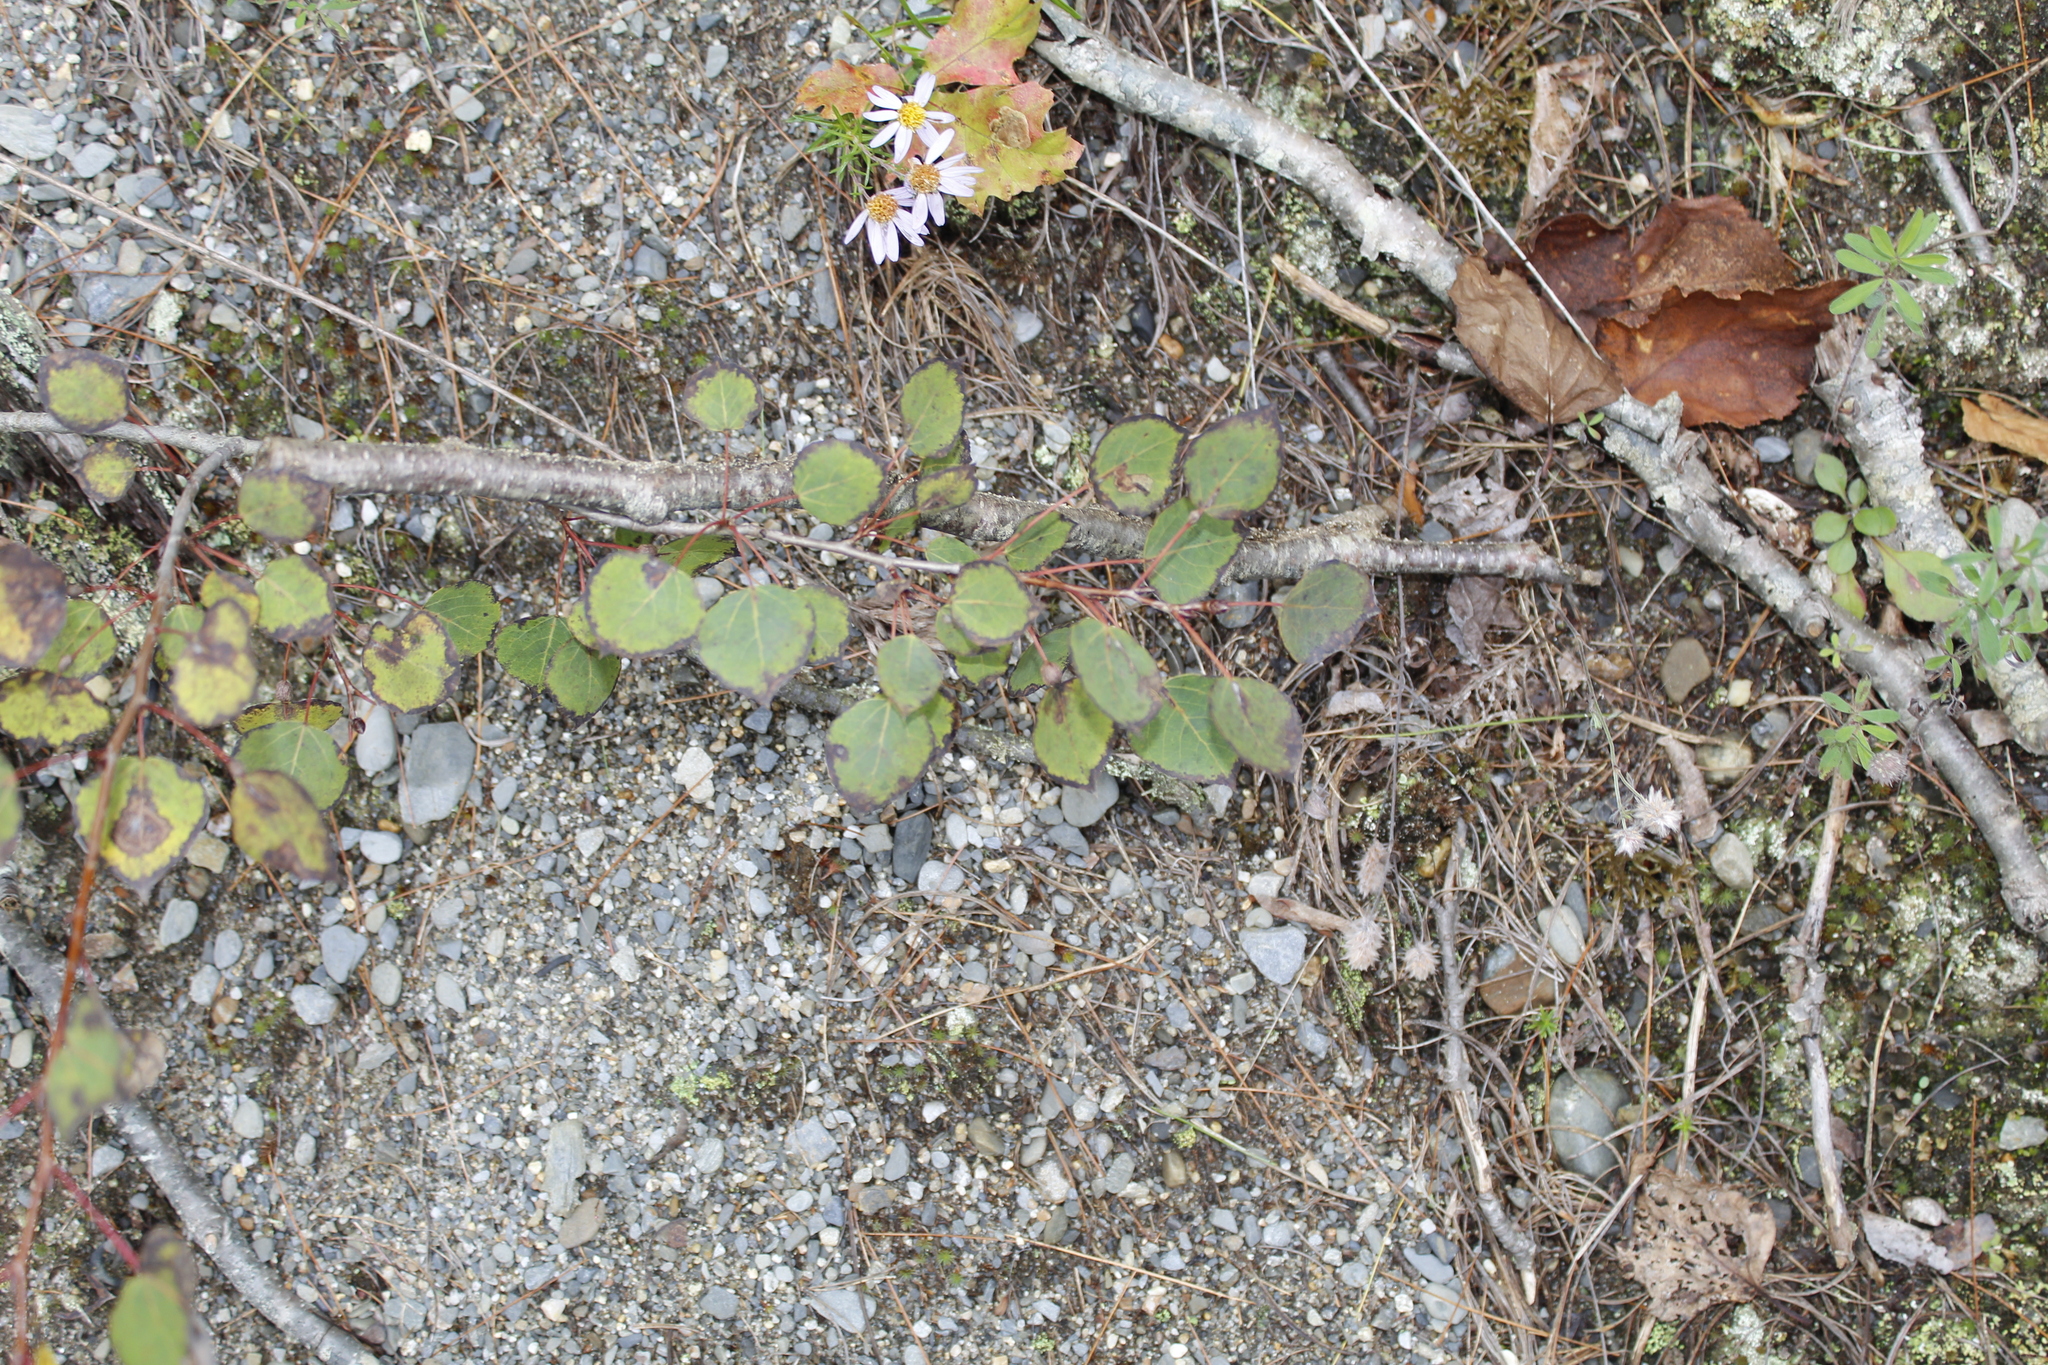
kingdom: Plantae
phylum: Tracheophyta
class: Magnoliopsida
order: Malpighiales
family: Salicaceae
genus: Populus
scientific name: Populus tremuloides
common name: Quaking aspen
